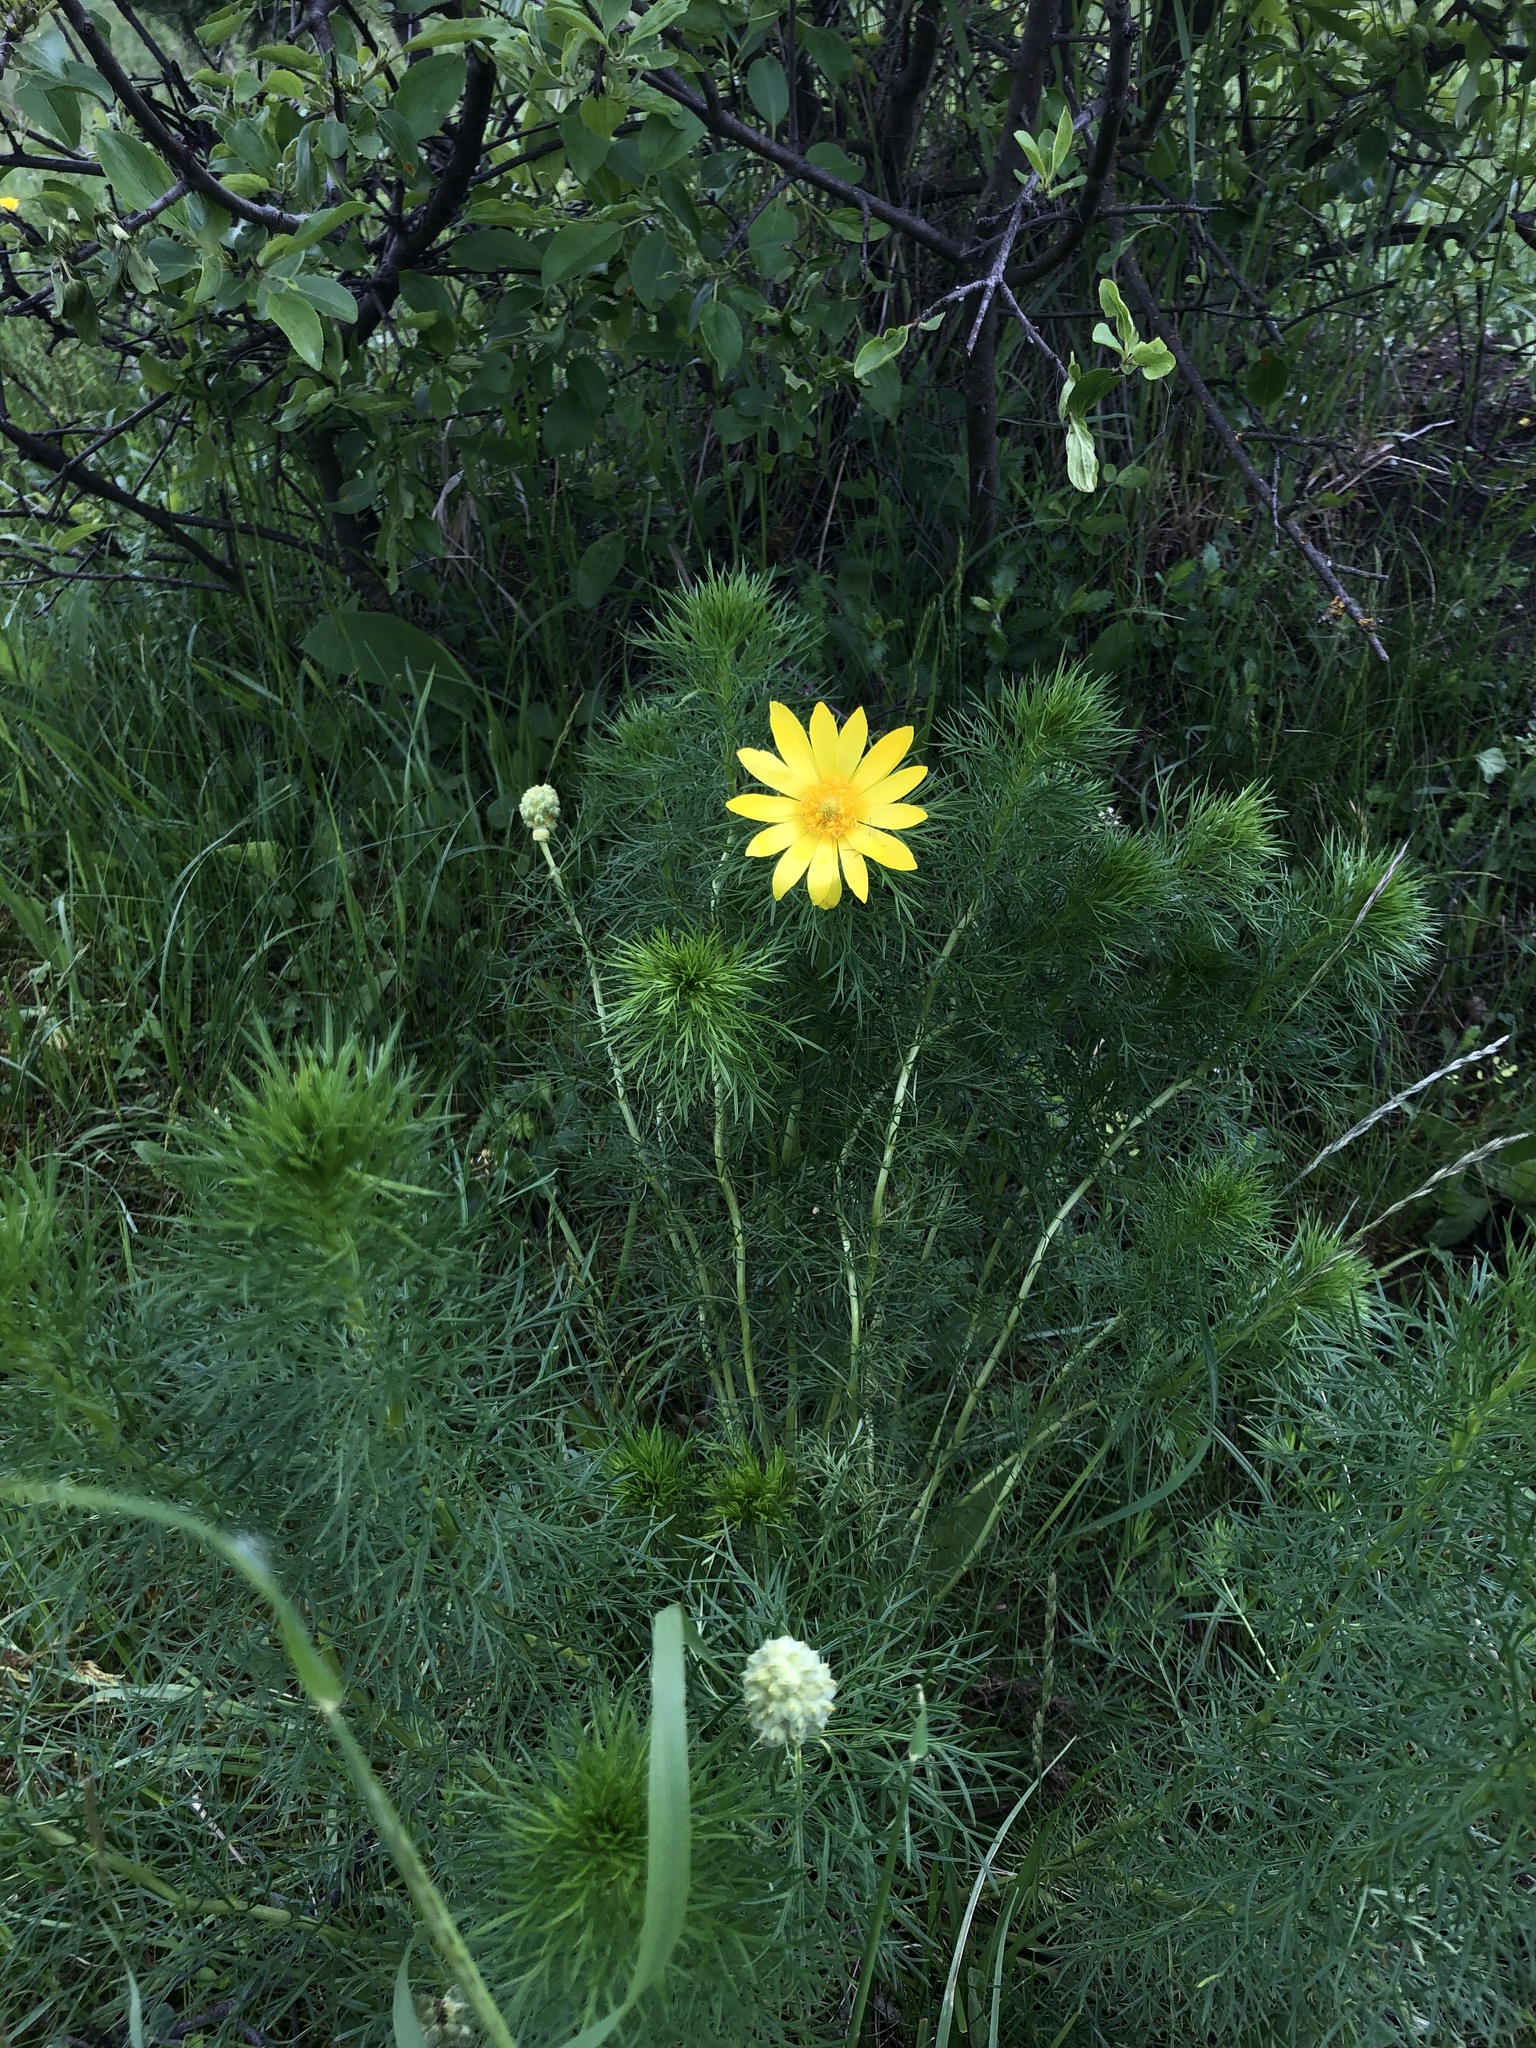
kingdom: Plantae
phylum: Tracheophyta
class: Magnoliopsida
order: Ranunculales
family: Ranunculaceae
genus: Adonis
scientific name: Adonis vernalis
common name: Yellow pheasants-eye
